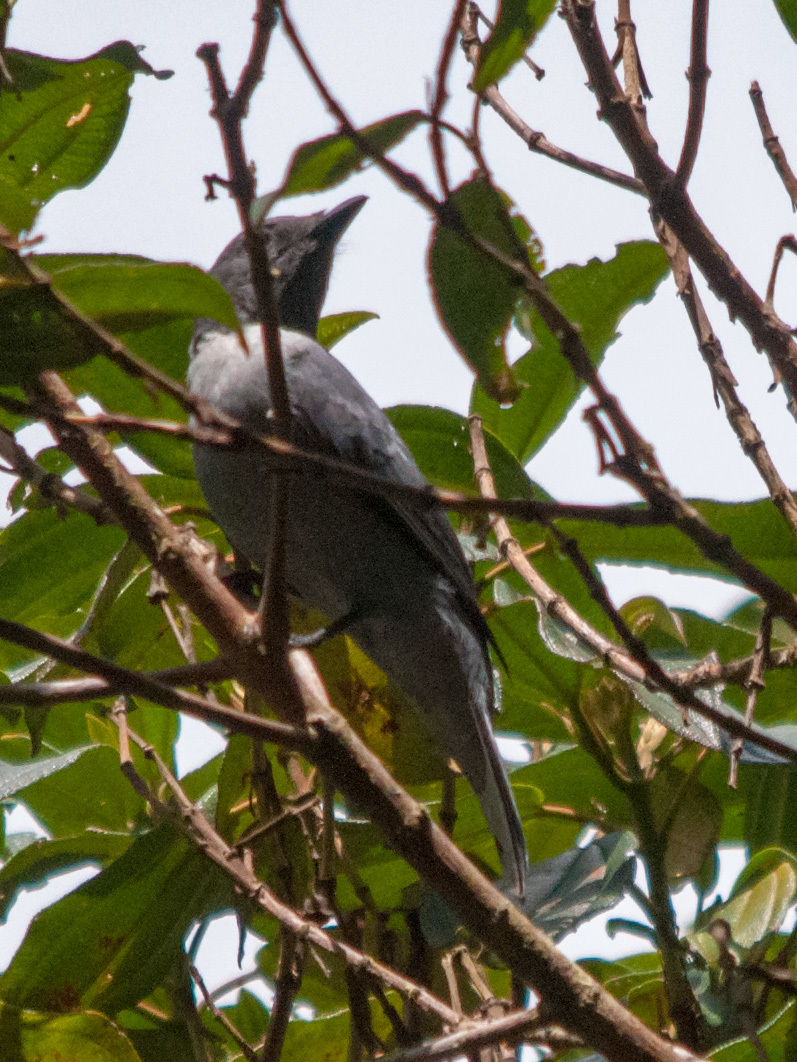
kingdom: Animalia
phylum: Chordata
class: Aves
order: Passeriformes
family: Campephagidae
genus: Coracina
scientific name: Coracina cinerea
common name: Madagascan cuckooshrike
